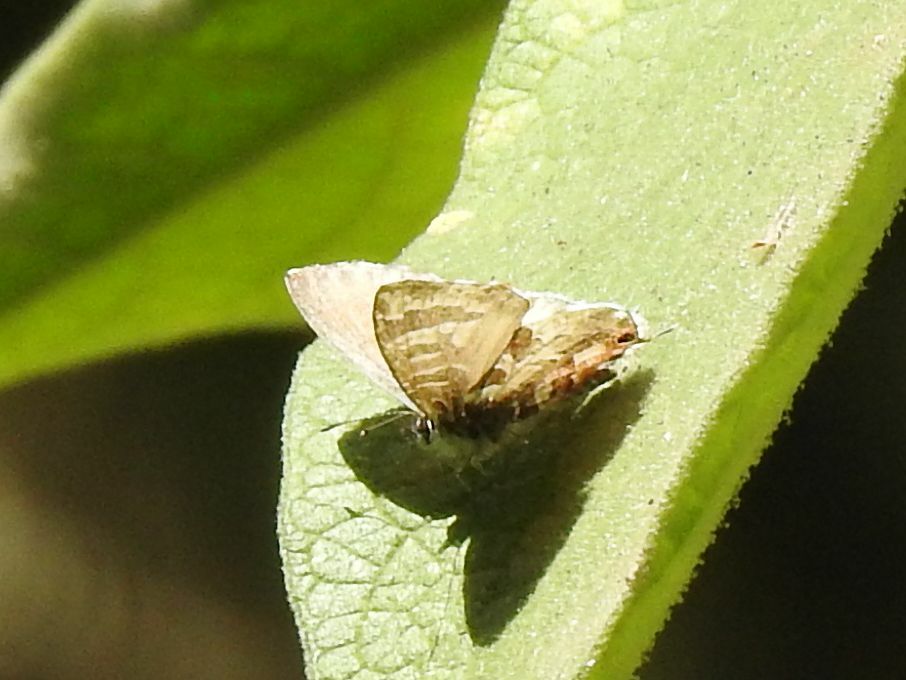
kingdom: Animalia
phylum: Arthropoda
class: Insecta
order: Lepidoptera
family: Lycaenidae
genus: Cacyreus
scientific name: Cacyreus lingeus
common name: Bush bronze
